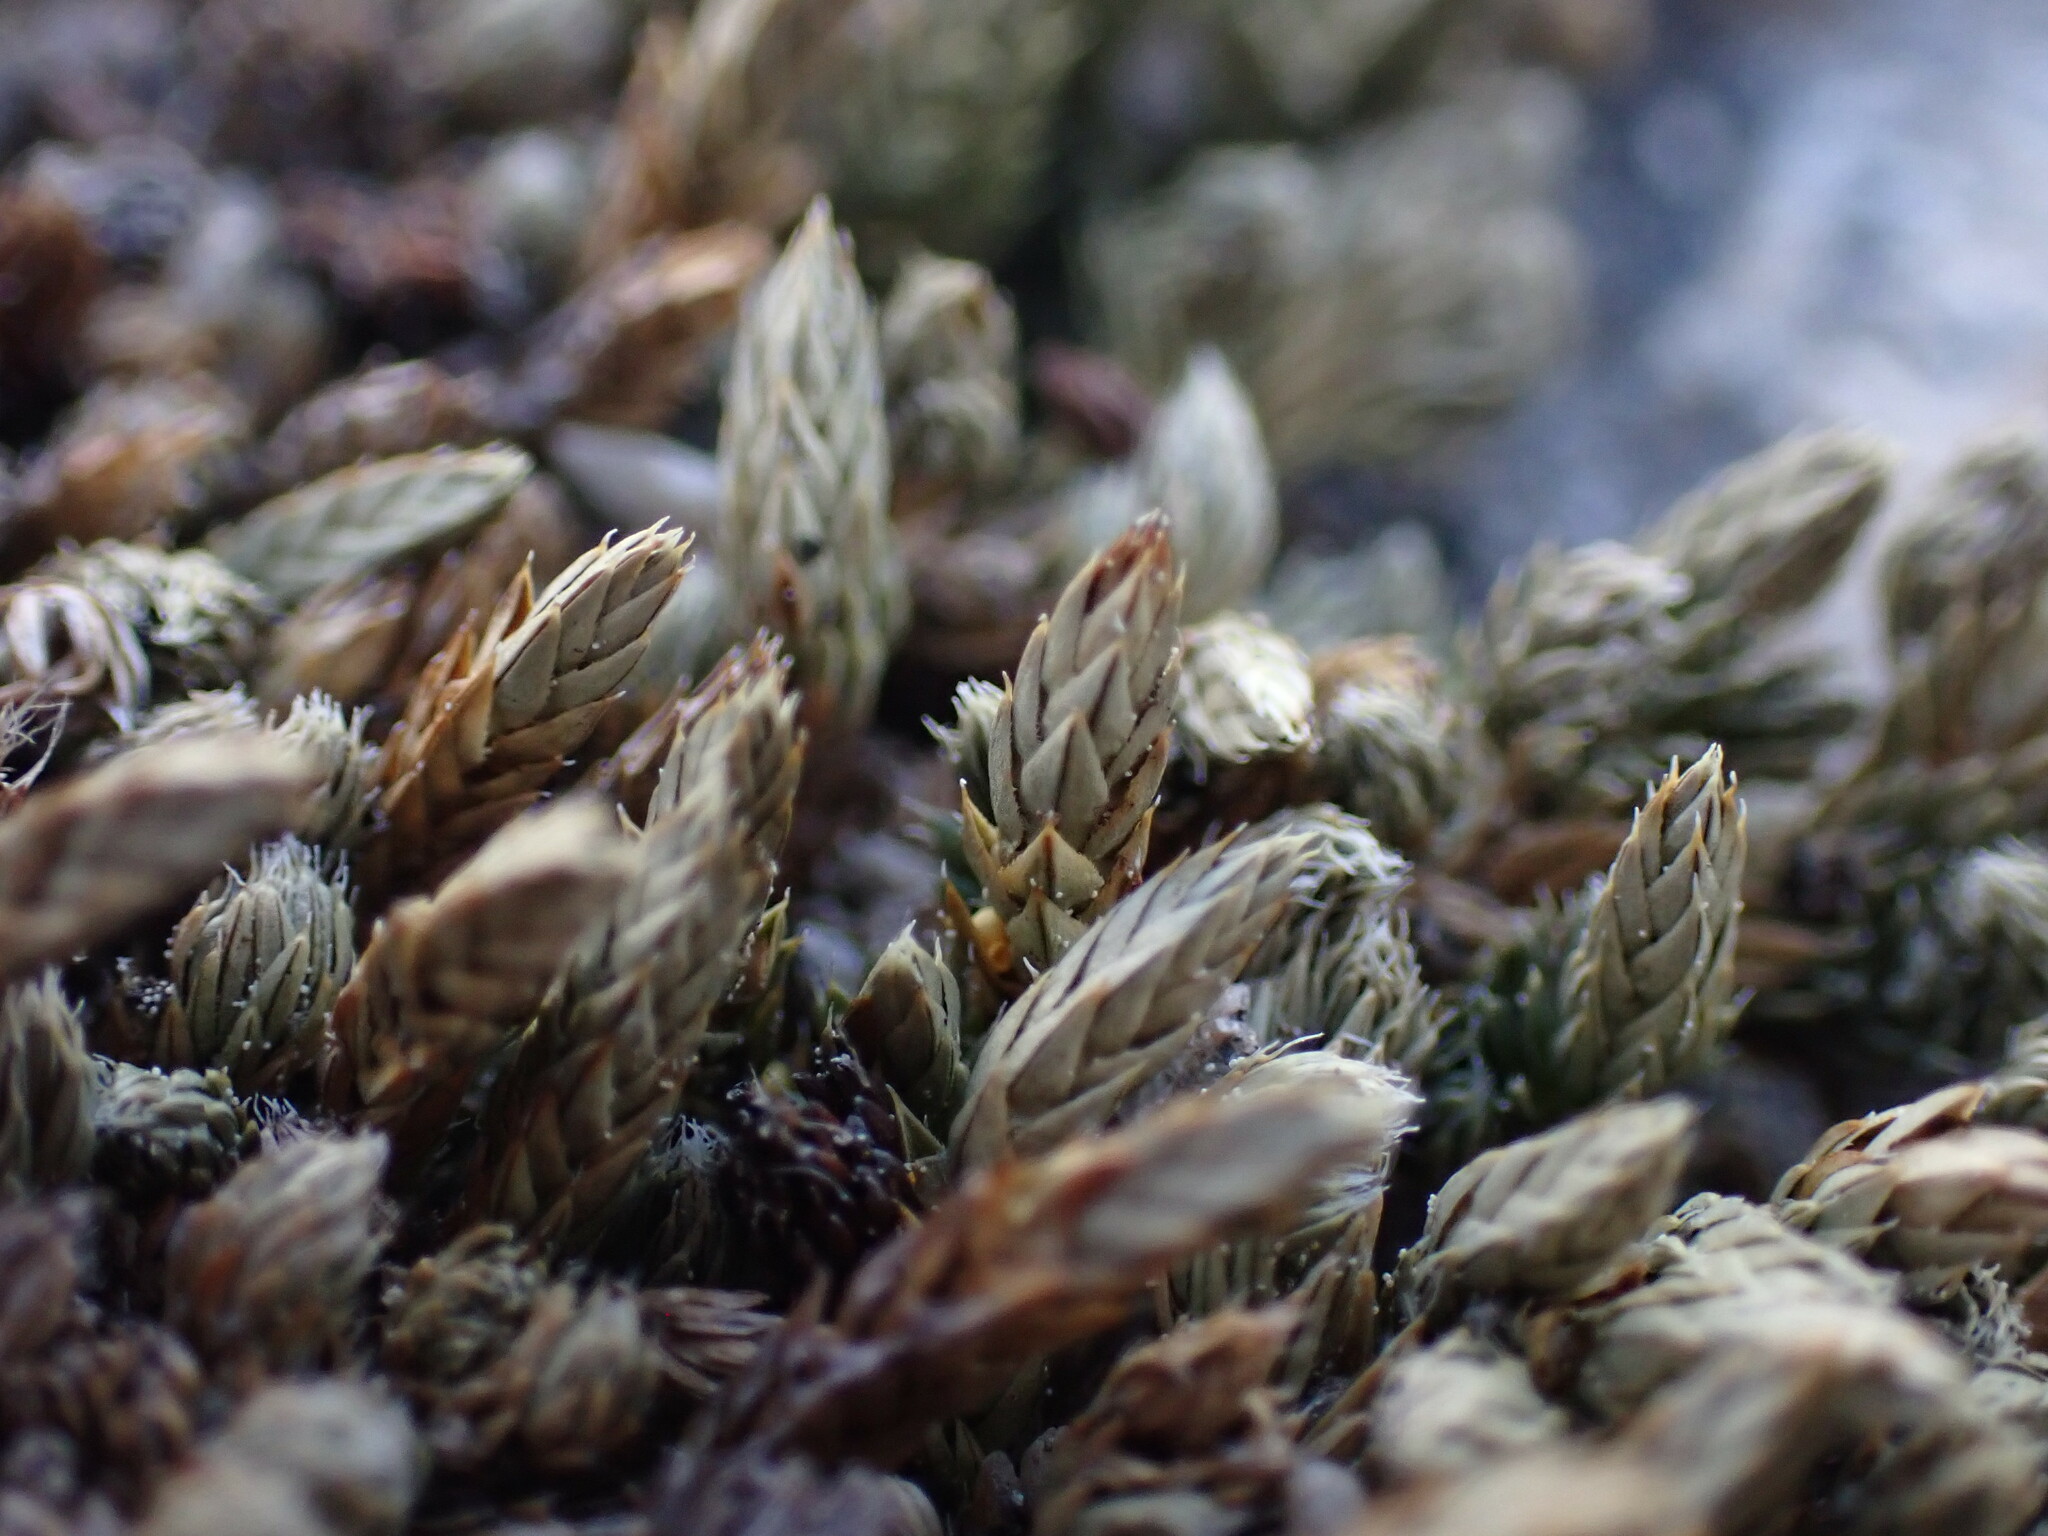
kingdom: Plantae
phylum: Tracheophyta
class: Lycopodiopsida
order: Selaginellales
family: Selaginellaceae
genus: Selaginella
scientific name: Selaginella densa
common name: Mountain spike-moss
